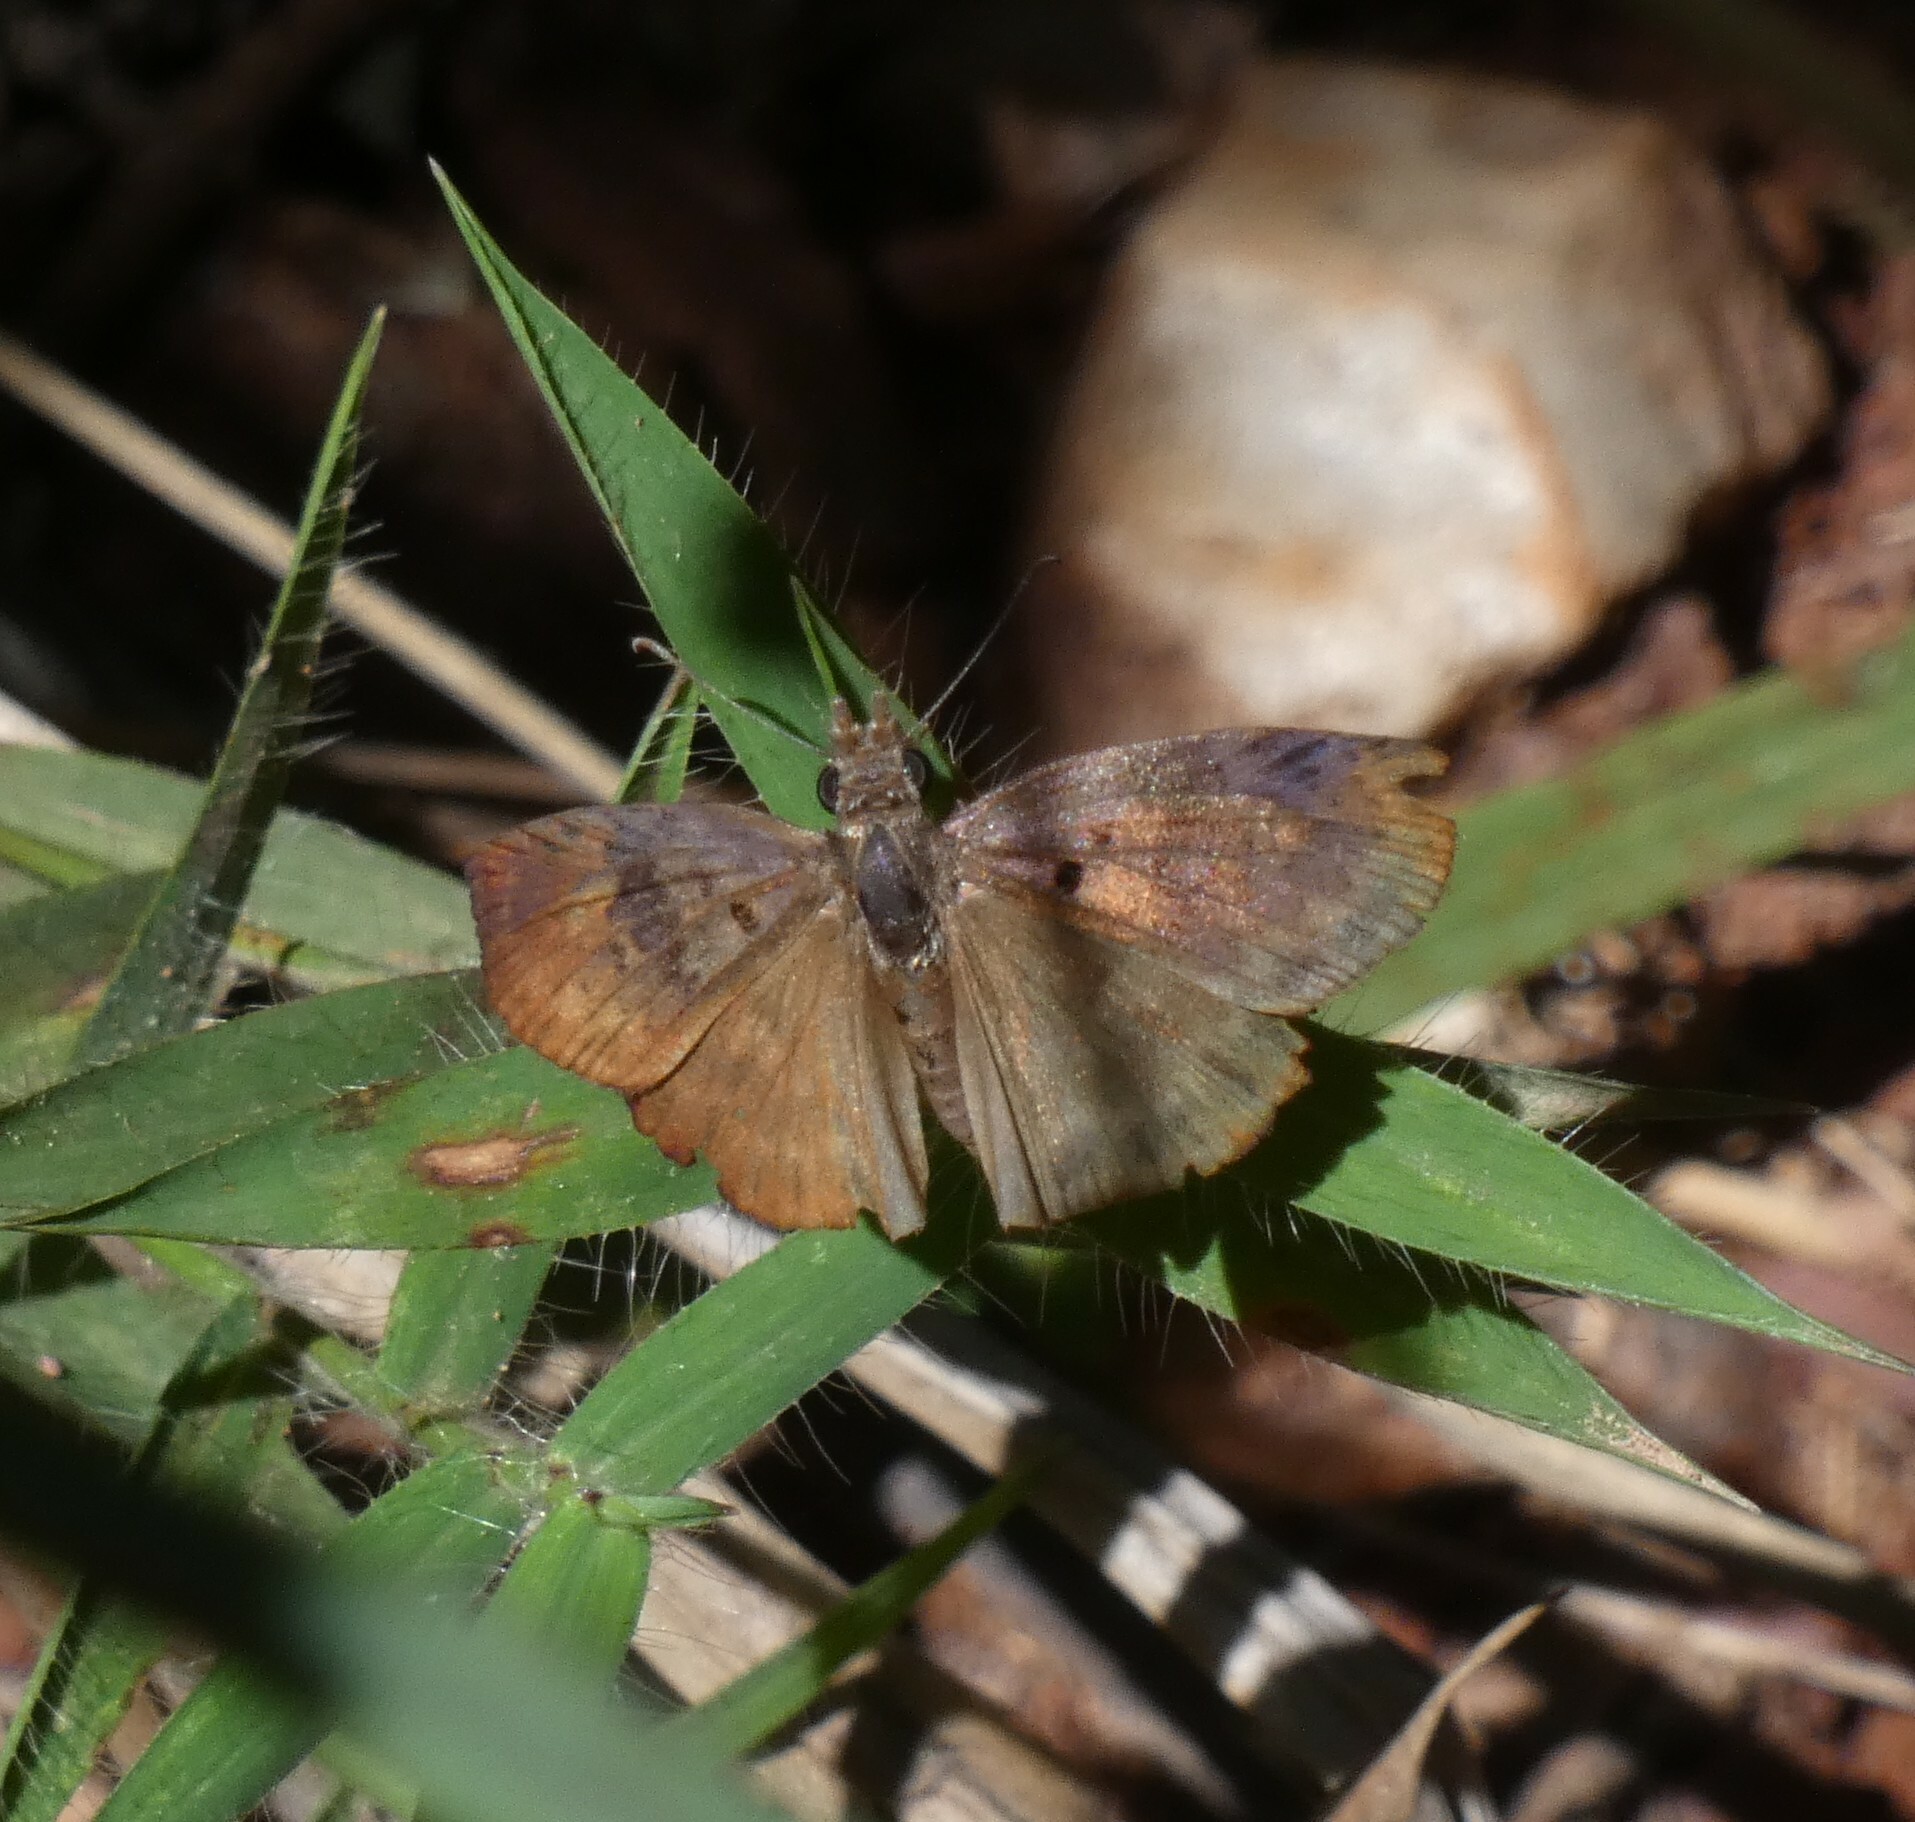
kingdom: Animalia
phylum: Arthropoda
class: Insecta
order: Lepidoptera
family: Hesperiidae
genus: Chiothion
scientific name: Chiothion
